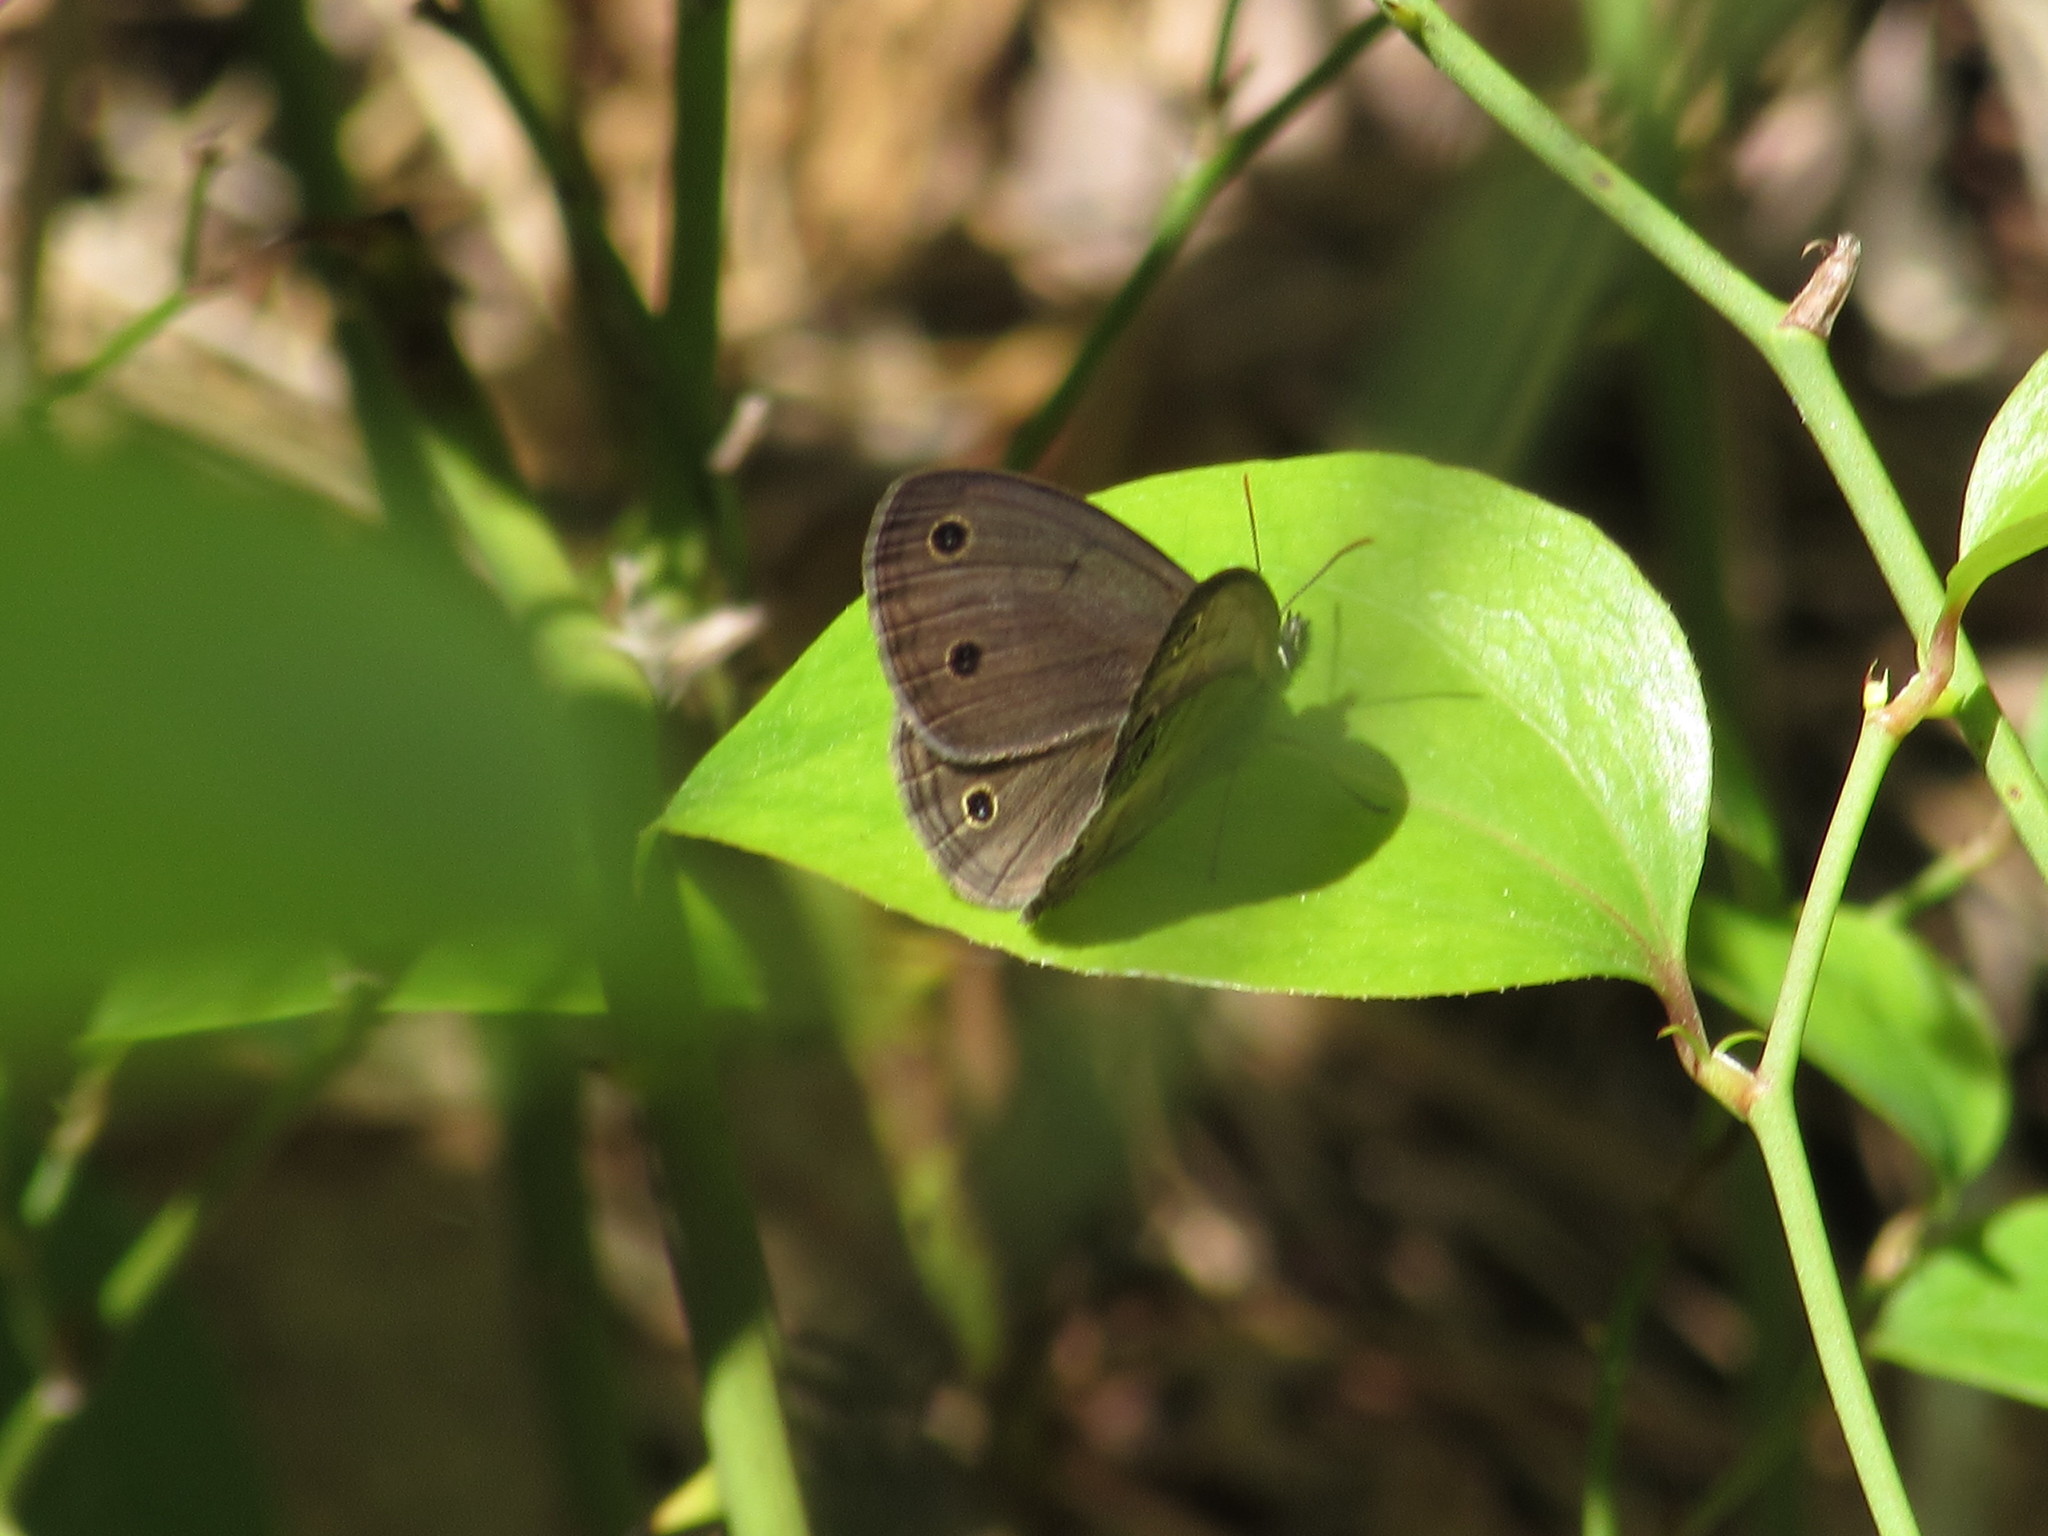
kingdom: Animalia
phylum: Arthropoda
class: Insecta
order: Lepidoptera
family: Nymphalidae
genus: Euptychia
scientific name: Euptychia cymela
